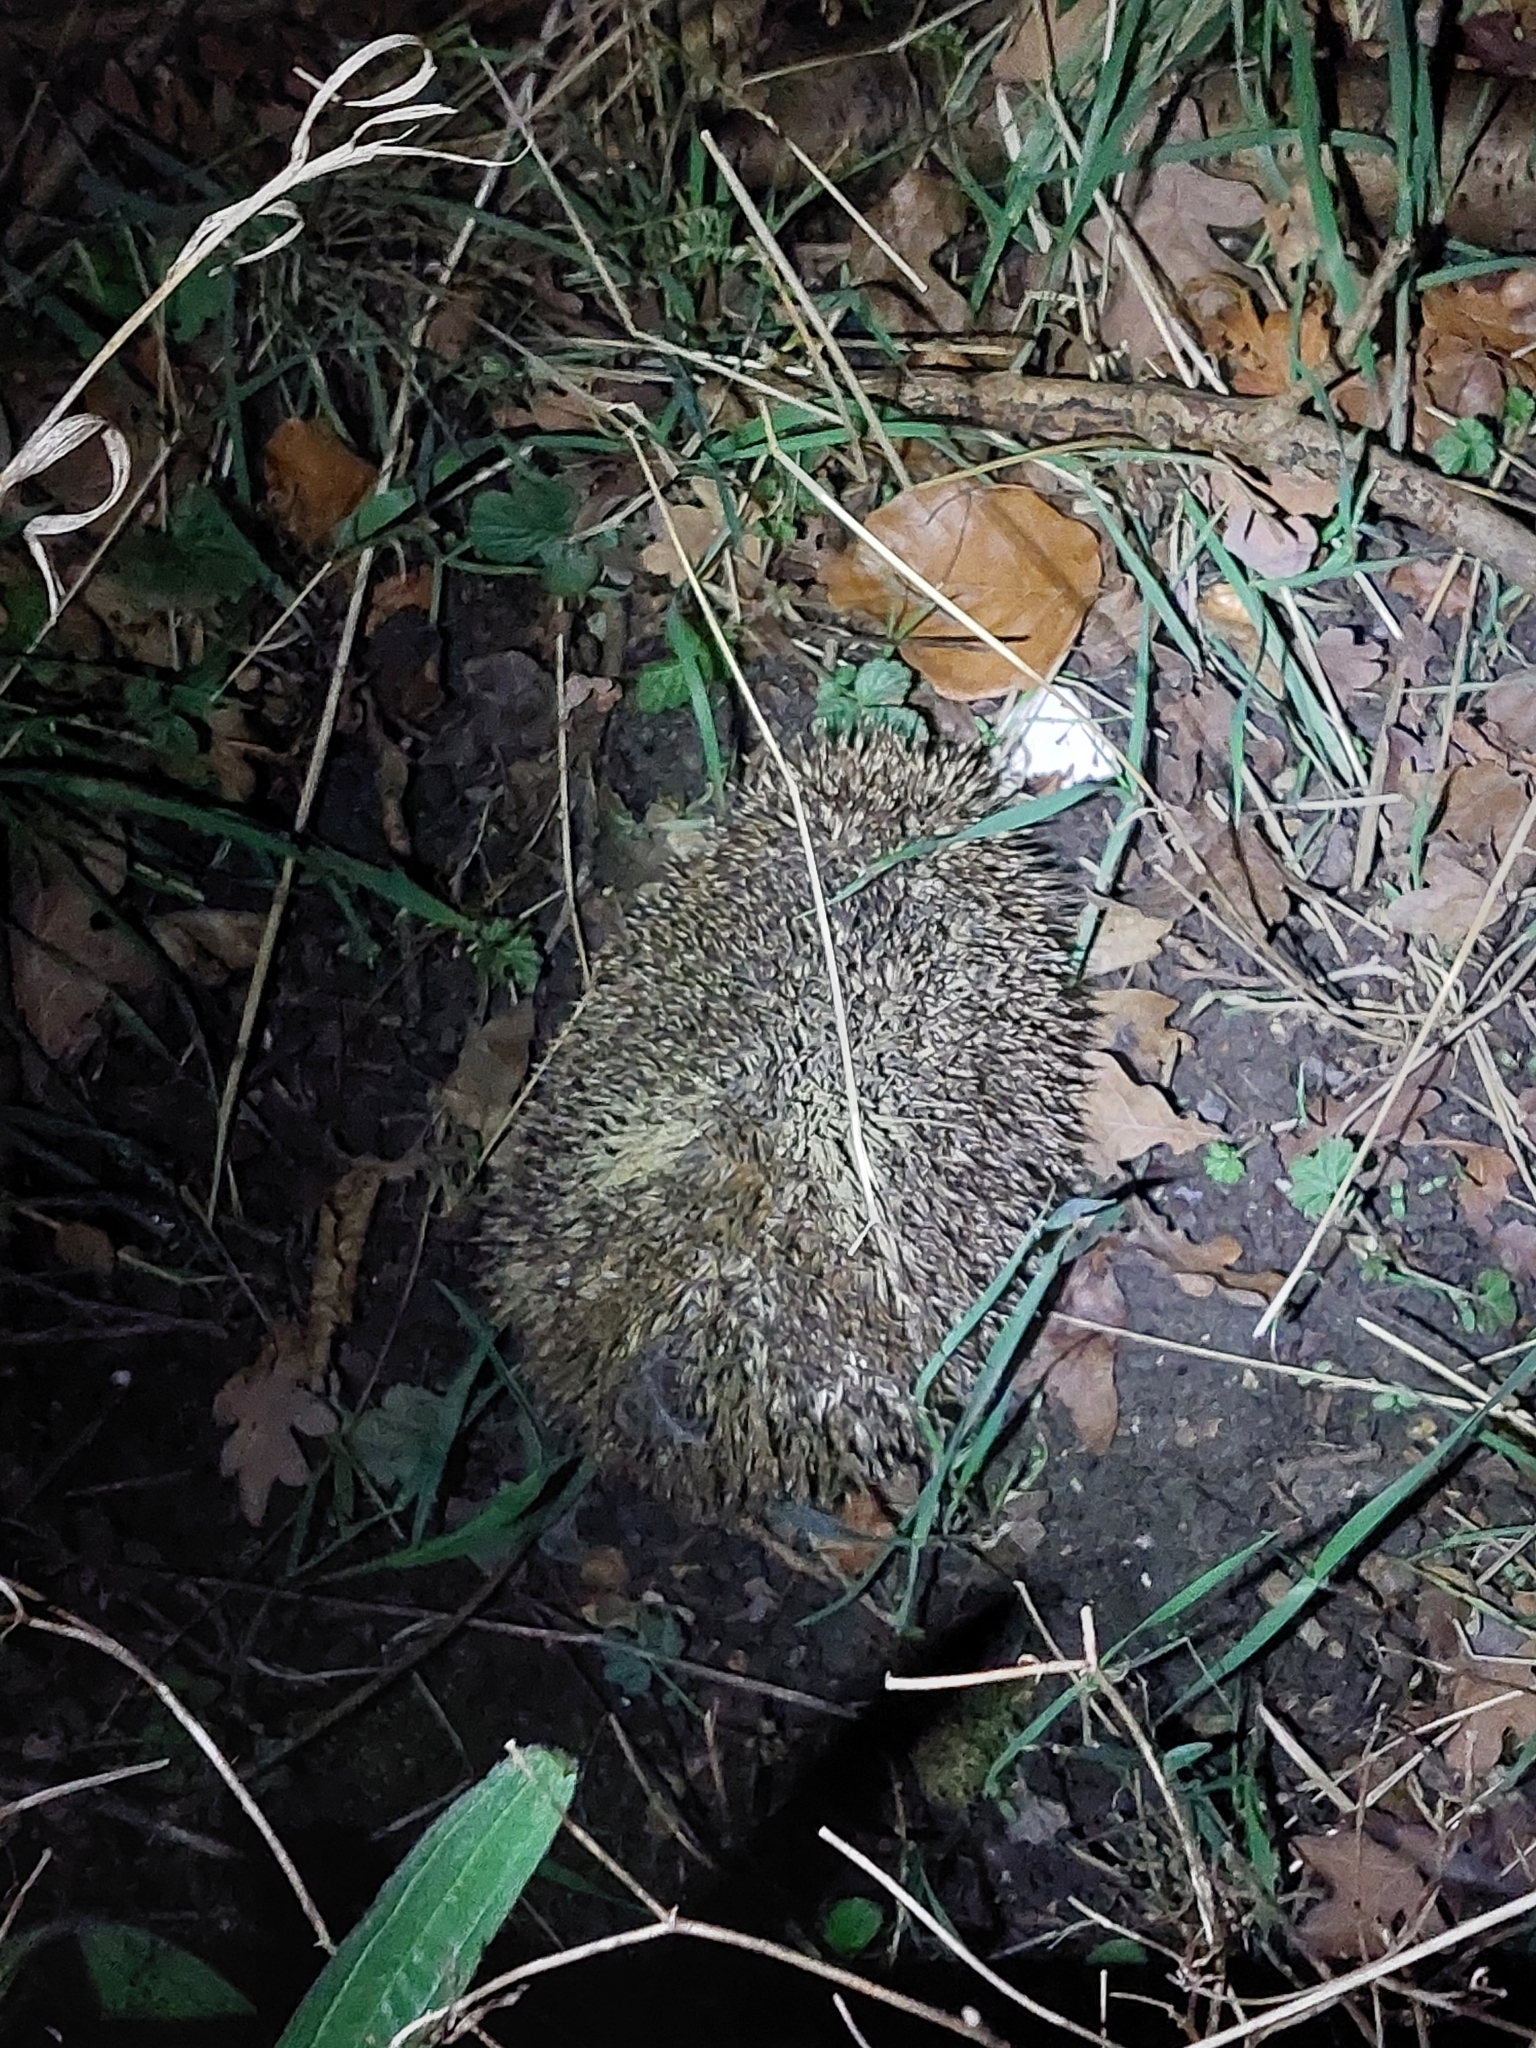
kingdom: Animalia
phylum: Chordata
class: Mammalia
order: Erinaceomorpha
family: Erinaceidae
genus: Erinaceus
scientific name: Erinaceus europaeus
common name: West european hedgehog
